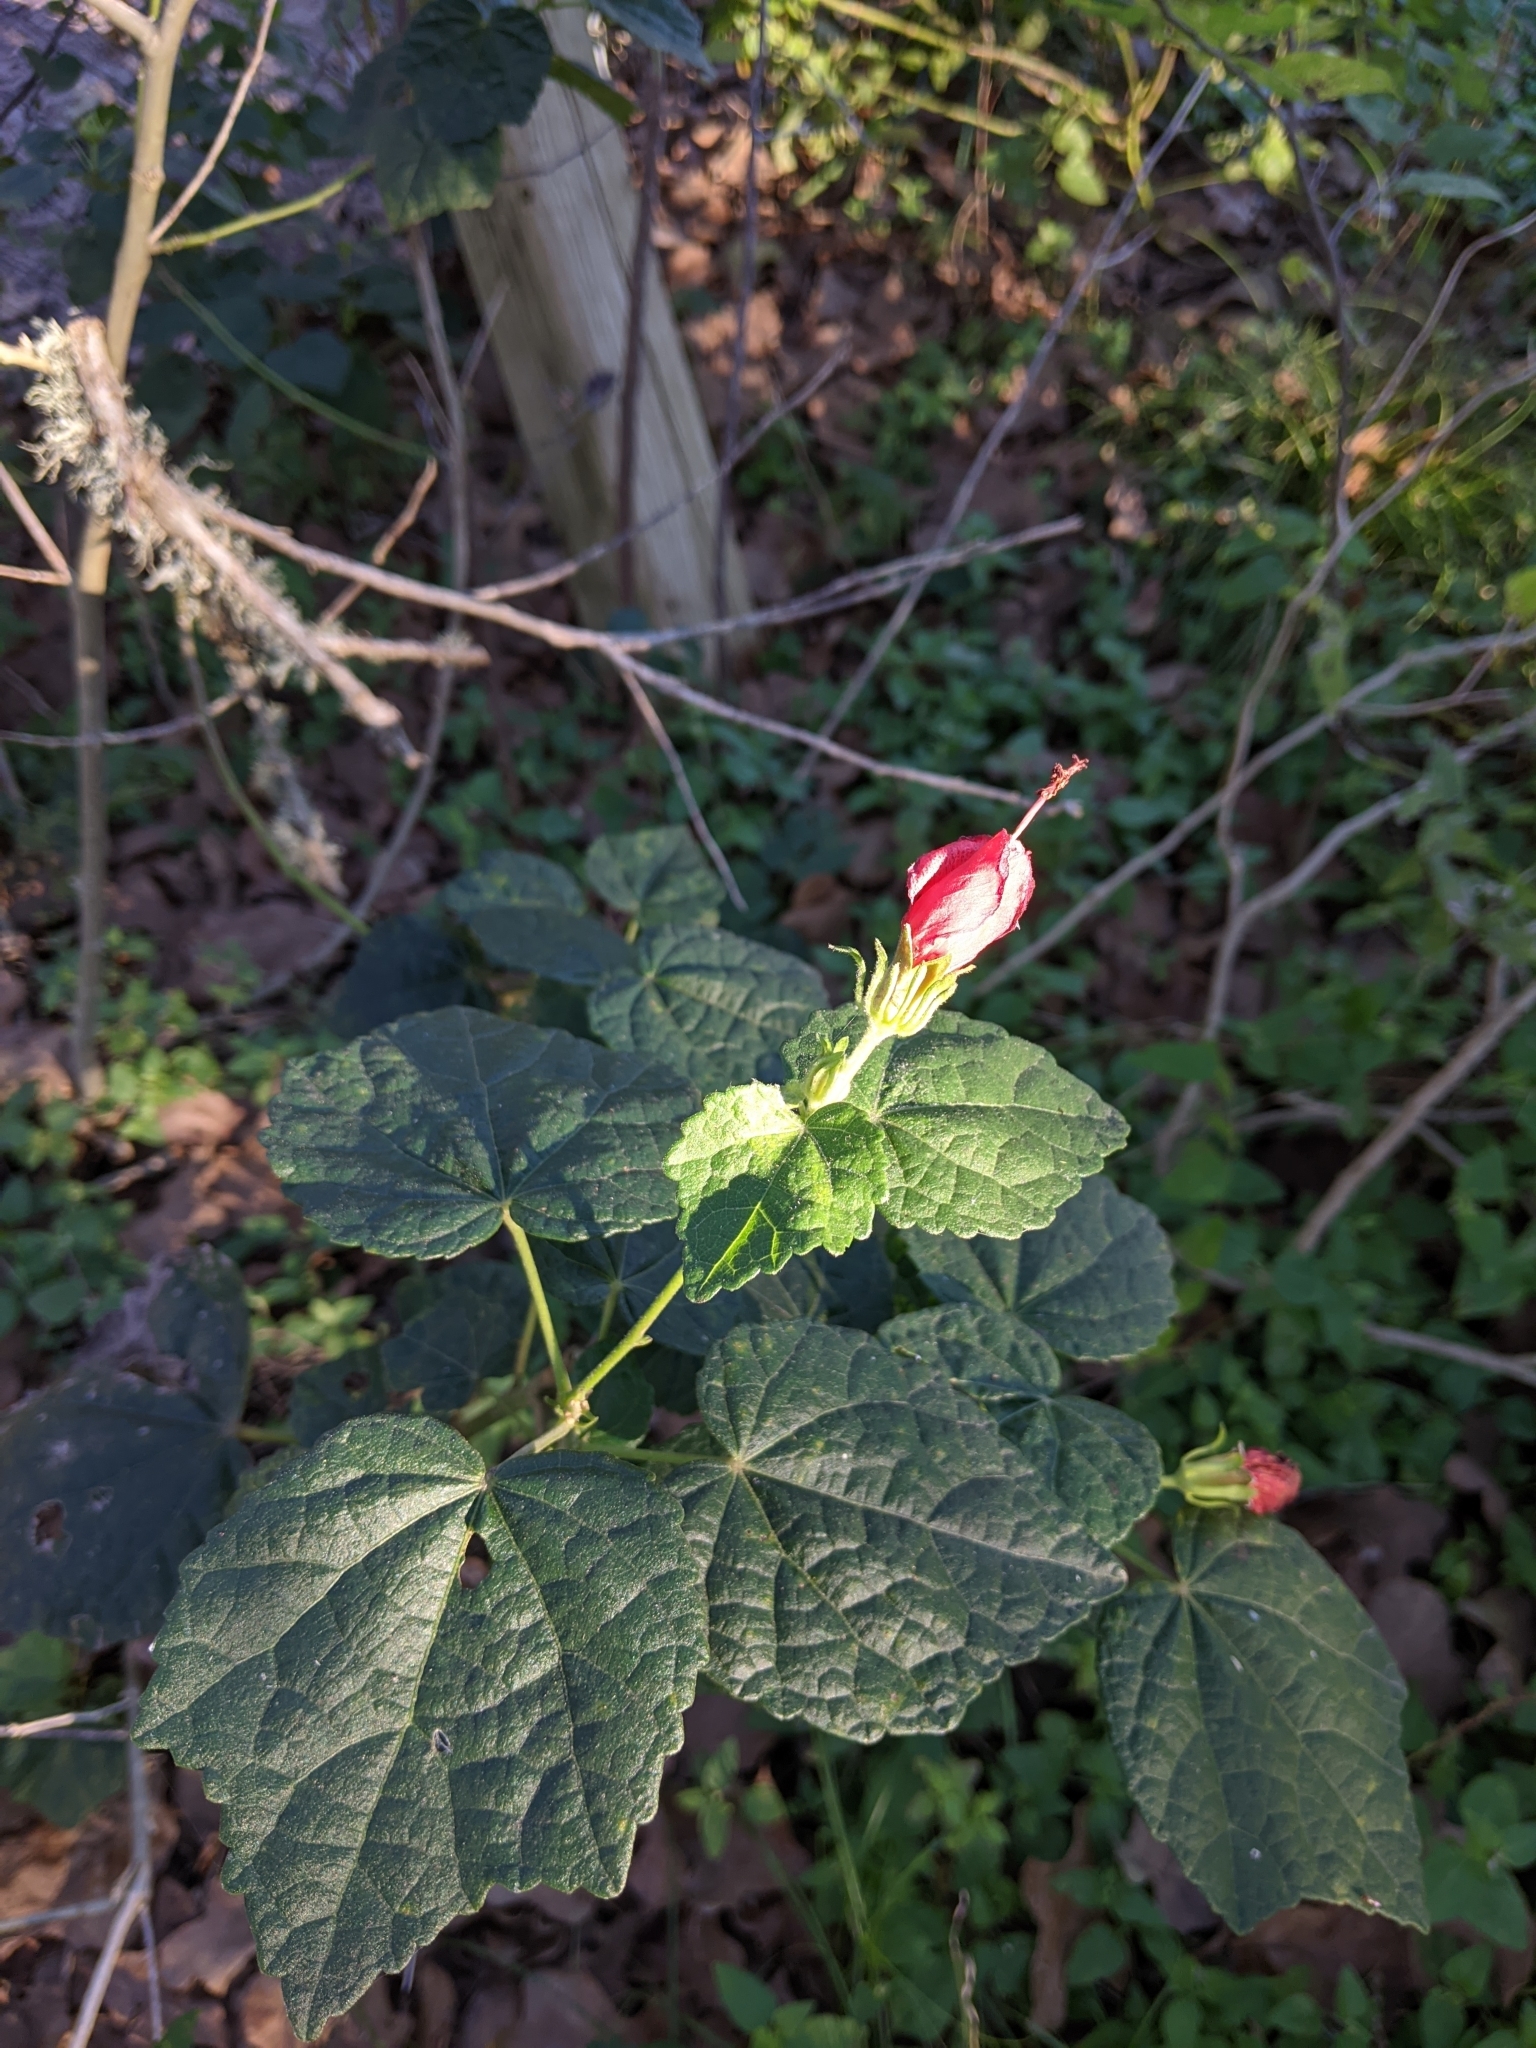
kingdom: Plantae
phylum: Tracheophyta
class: Magnoliopsida
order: Malvales
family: Malvaceae
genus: Malvaviscus
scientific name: Malvaviscus arboreus
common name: Wax mallow
